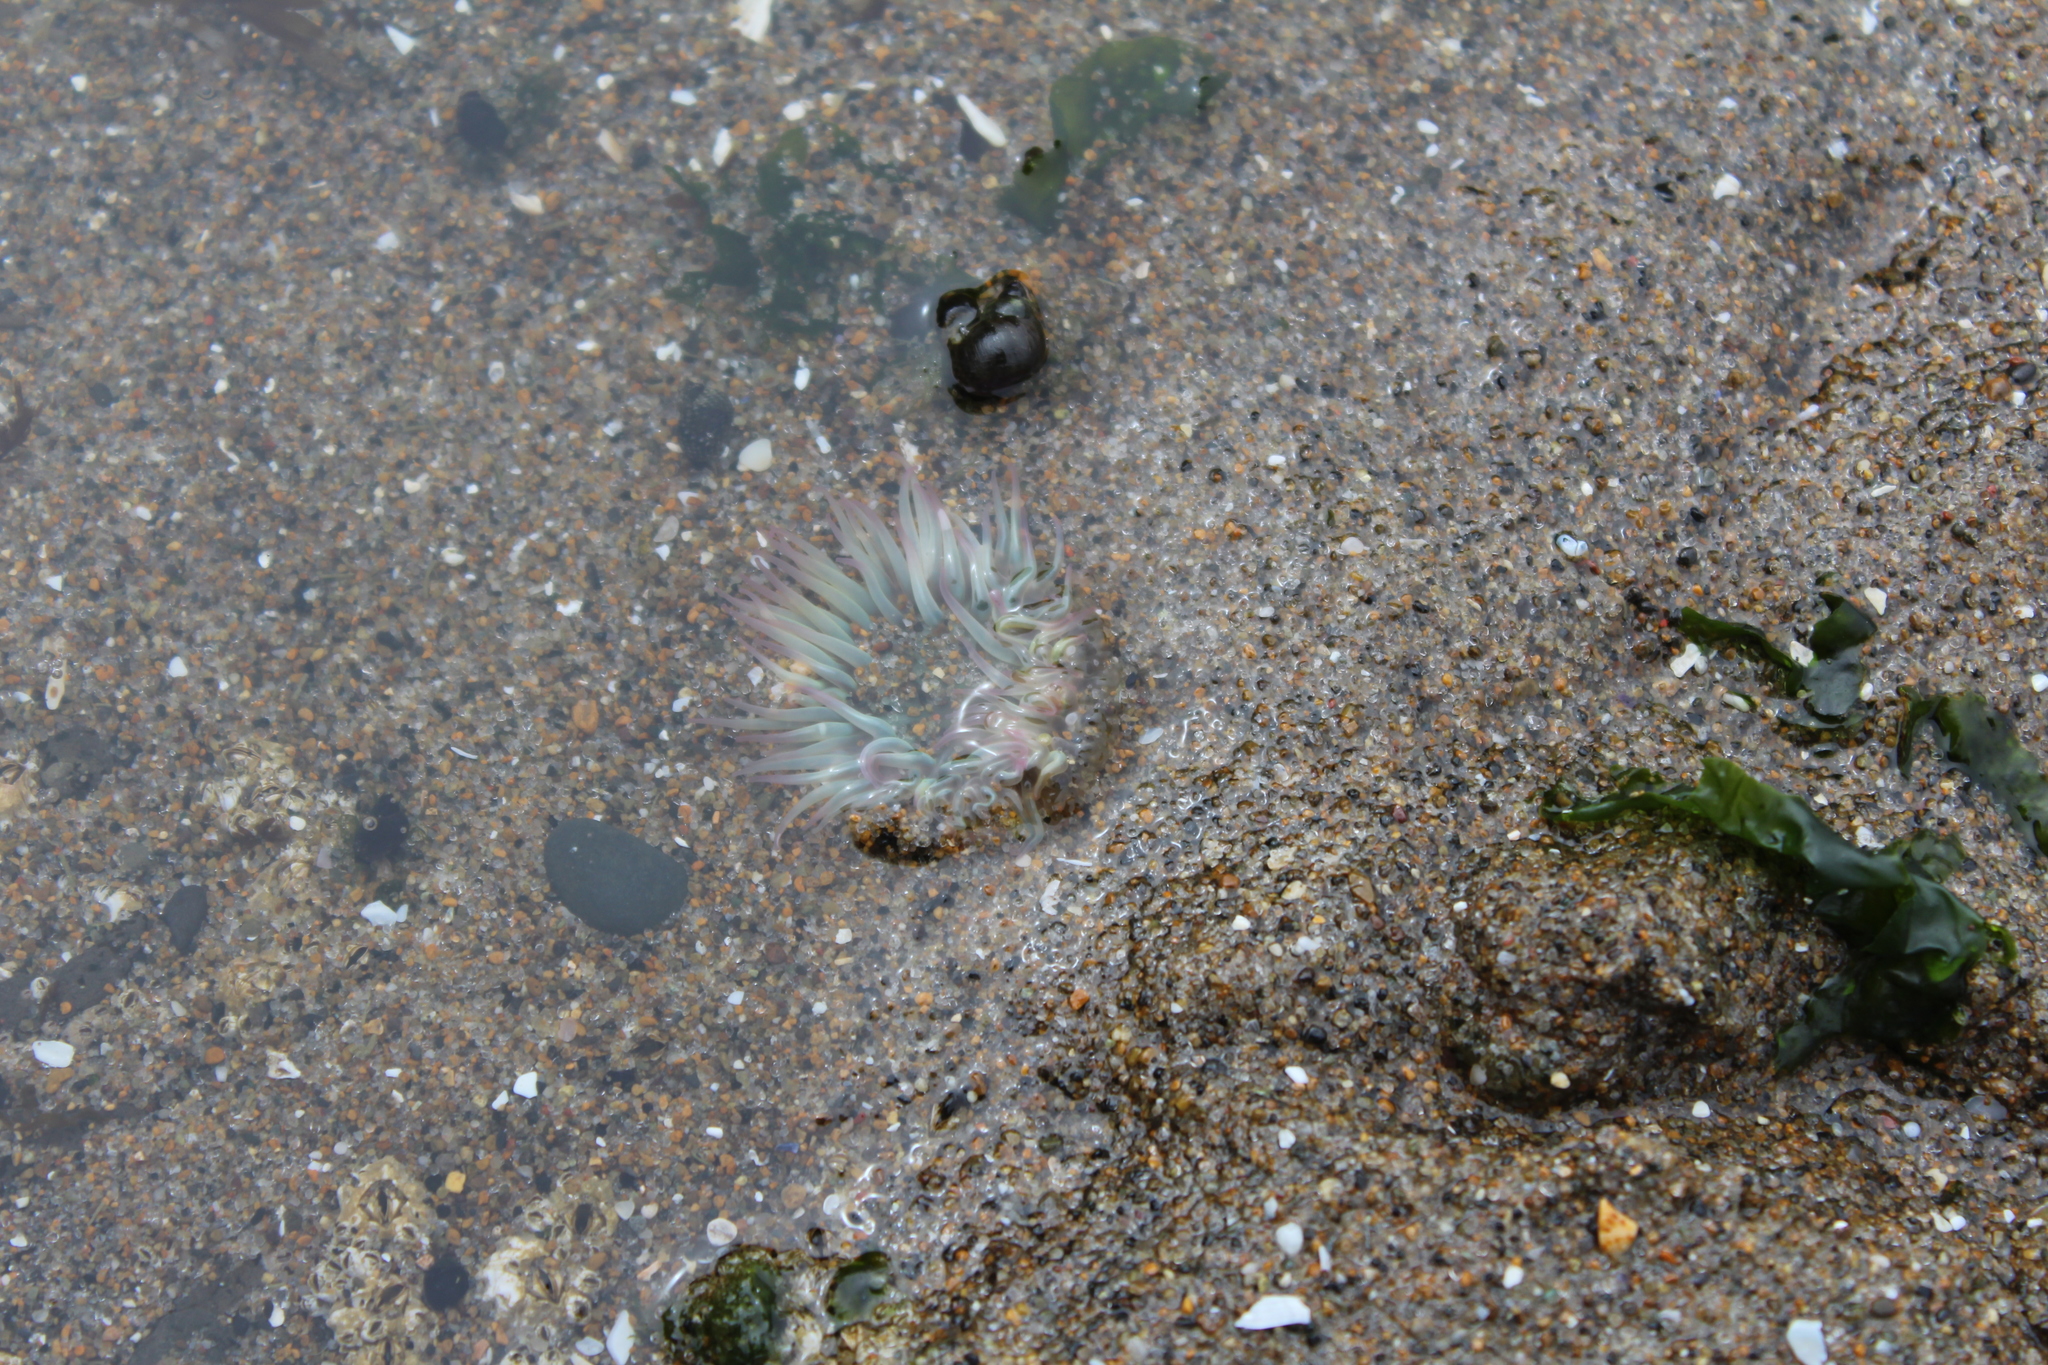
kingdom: Animalia
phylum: Cnidaria
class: Anthozoa
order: Actiniaria
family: Actiniidae
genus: Anthopleura
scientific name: Anthopleura elegantissima
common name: Clonal anemone
